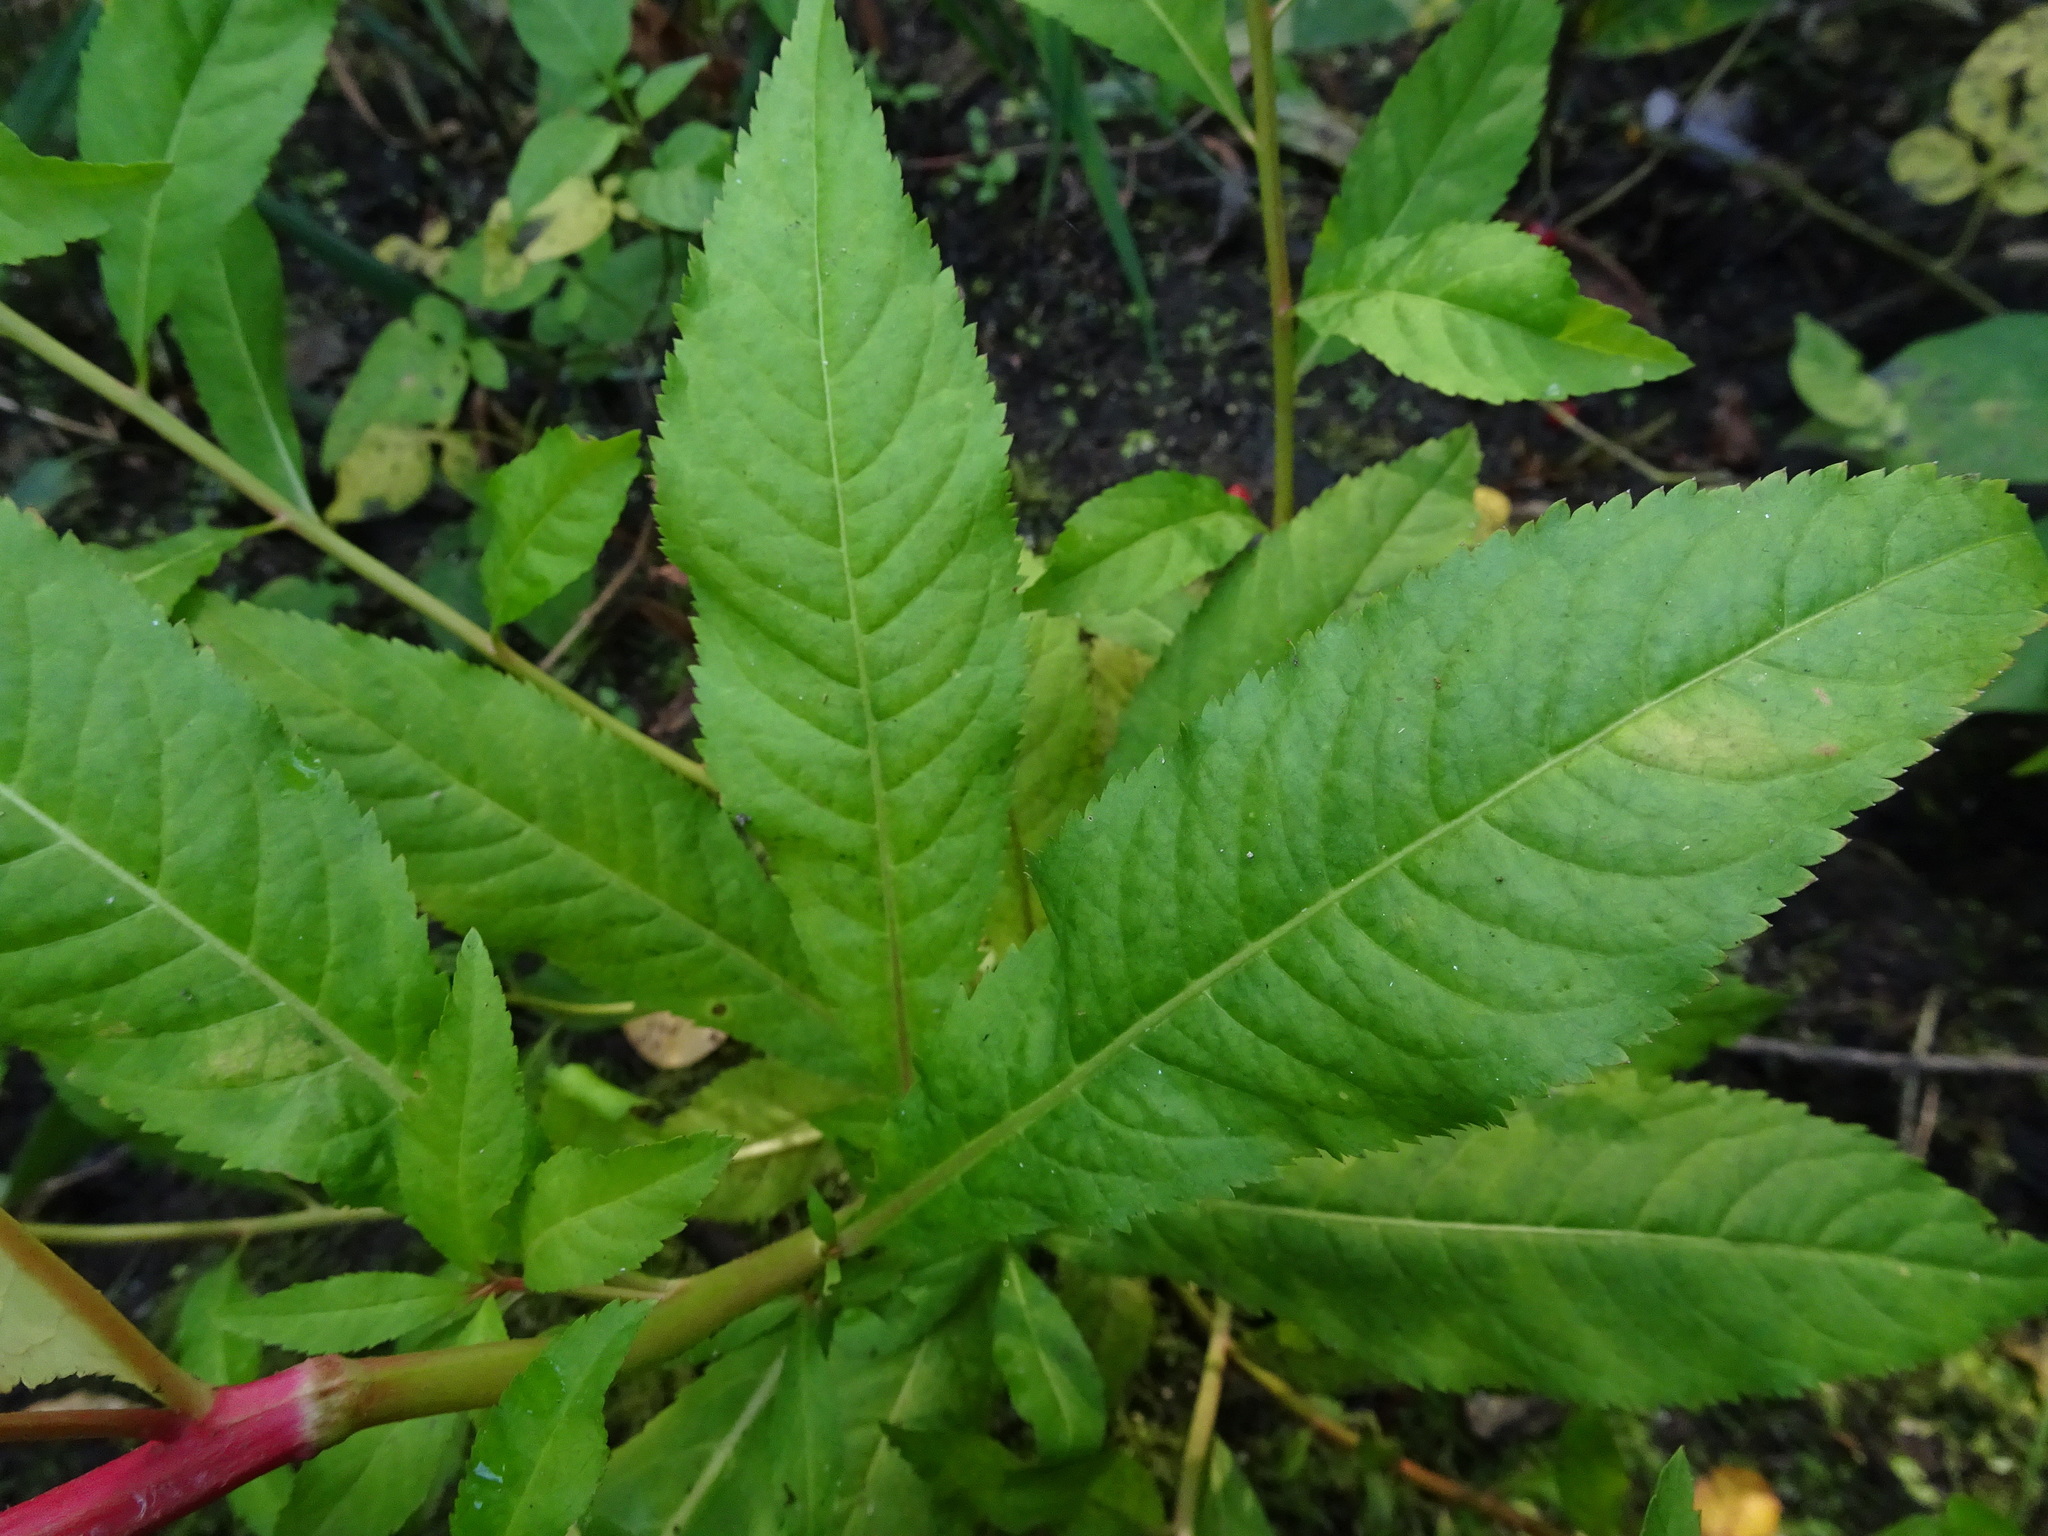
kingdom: Plantae
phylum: Tracheophyta
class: Magnoliopsida
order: Saxifragales
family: Penthoraceae
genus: Penthorum
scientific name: Penthorum sedoides
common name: Ditch stonecrop
